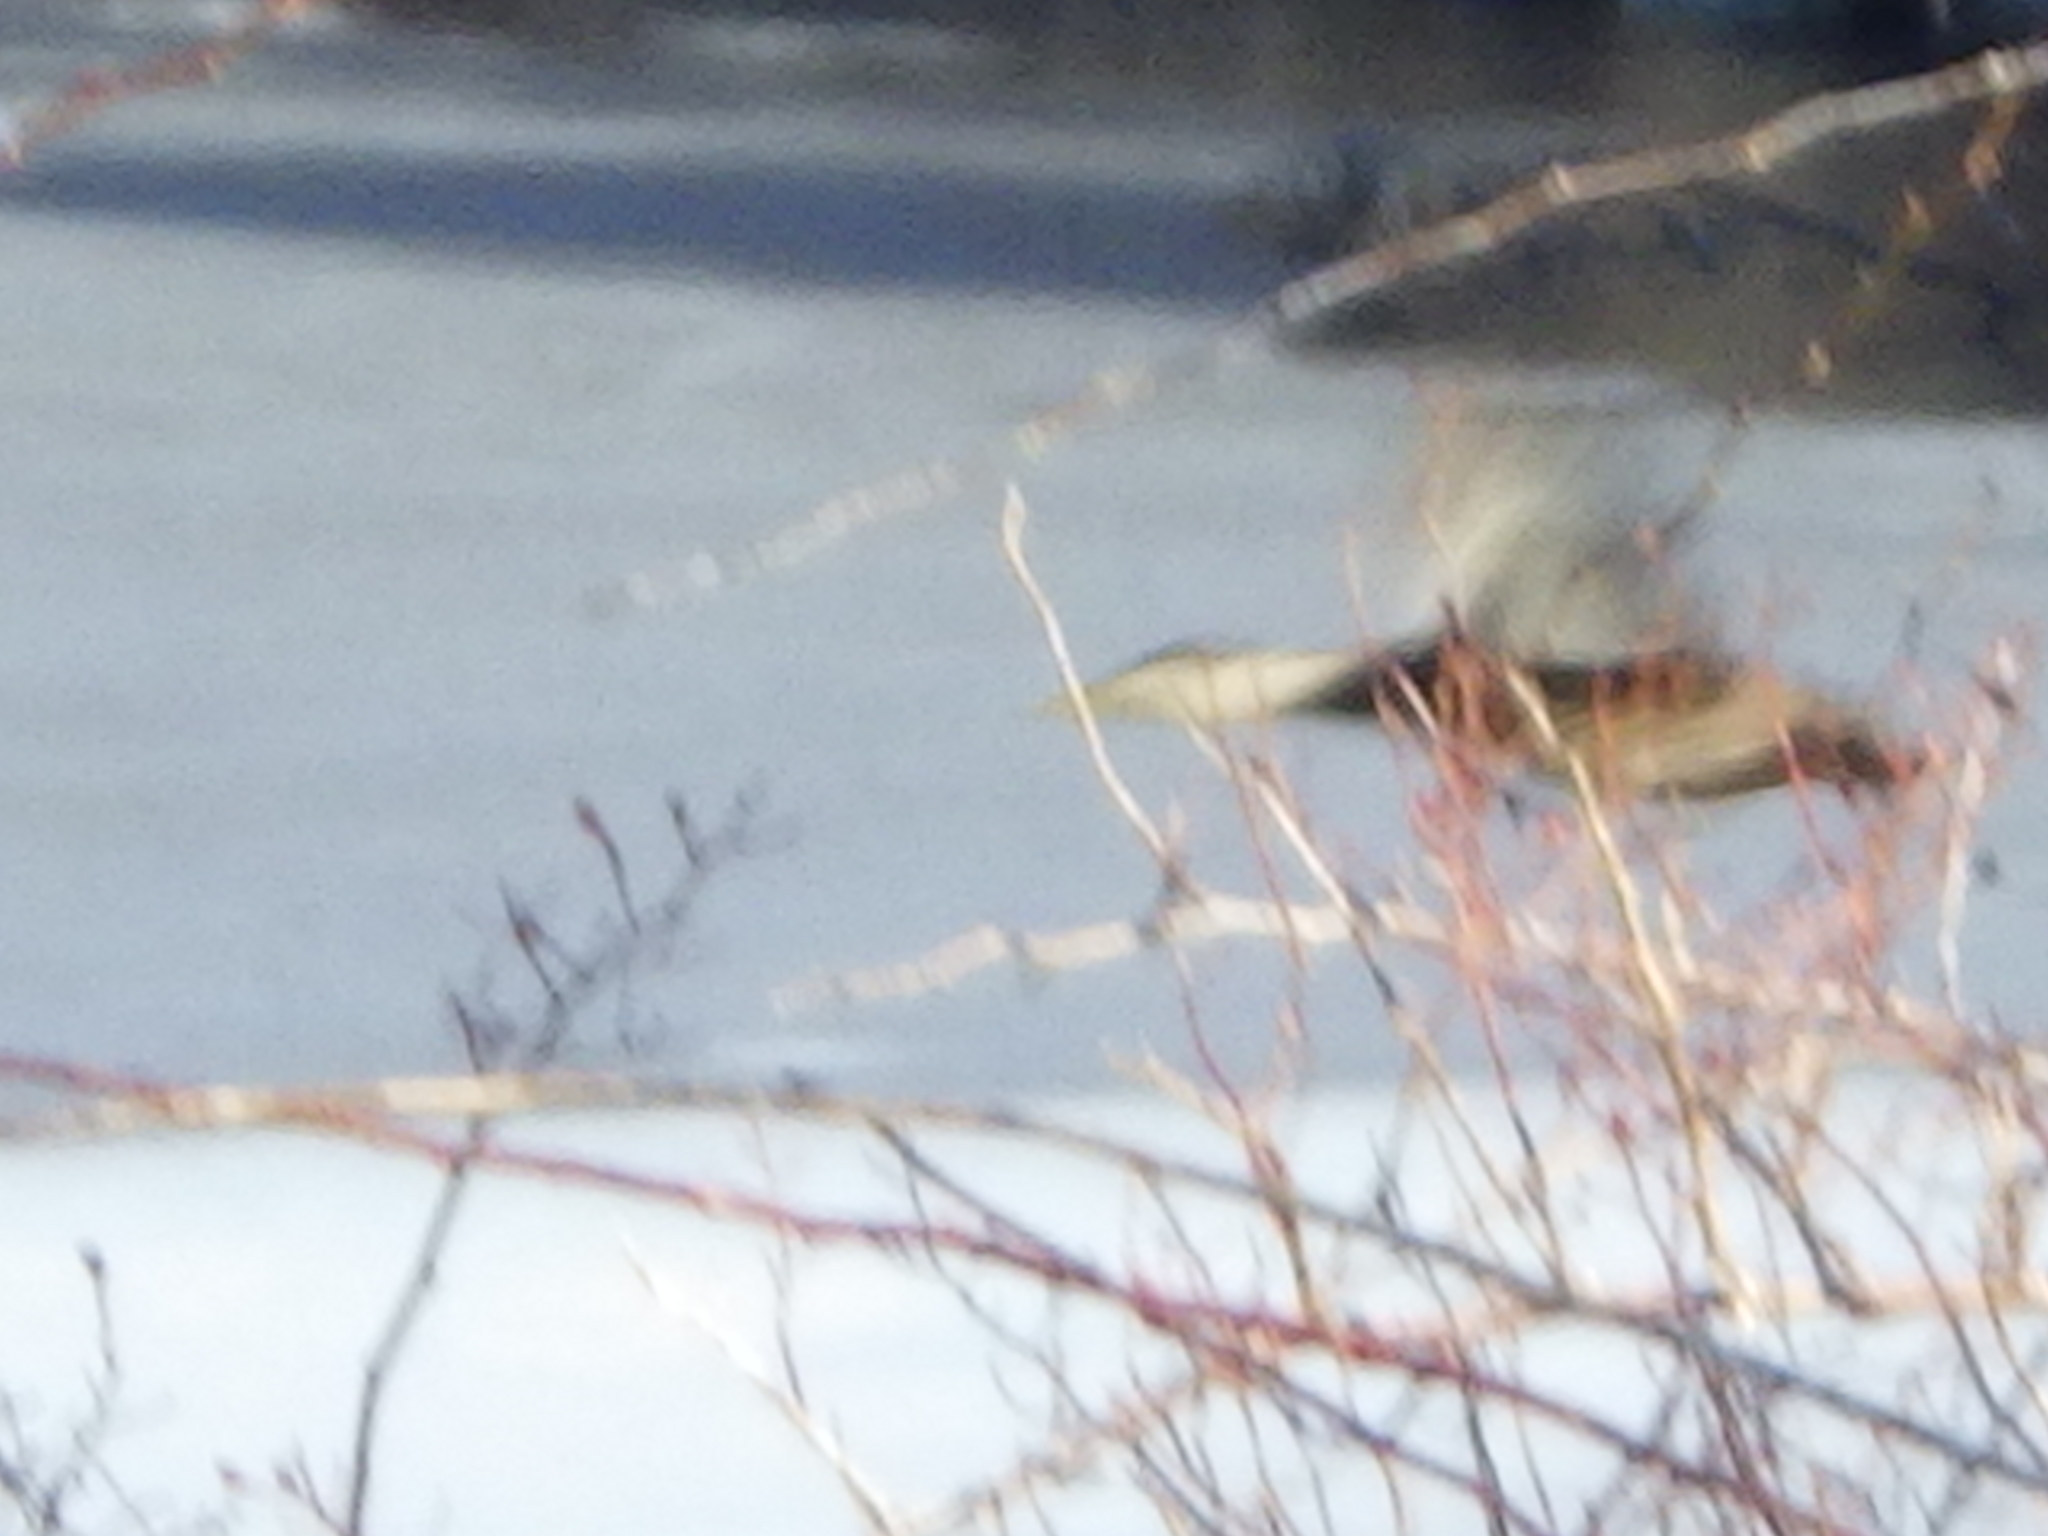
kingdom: Animalia
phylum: Chordata
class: Aves
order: Anseriformes
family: Anatidae
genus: Anas
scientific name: Anas rubripes
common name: American black duck
